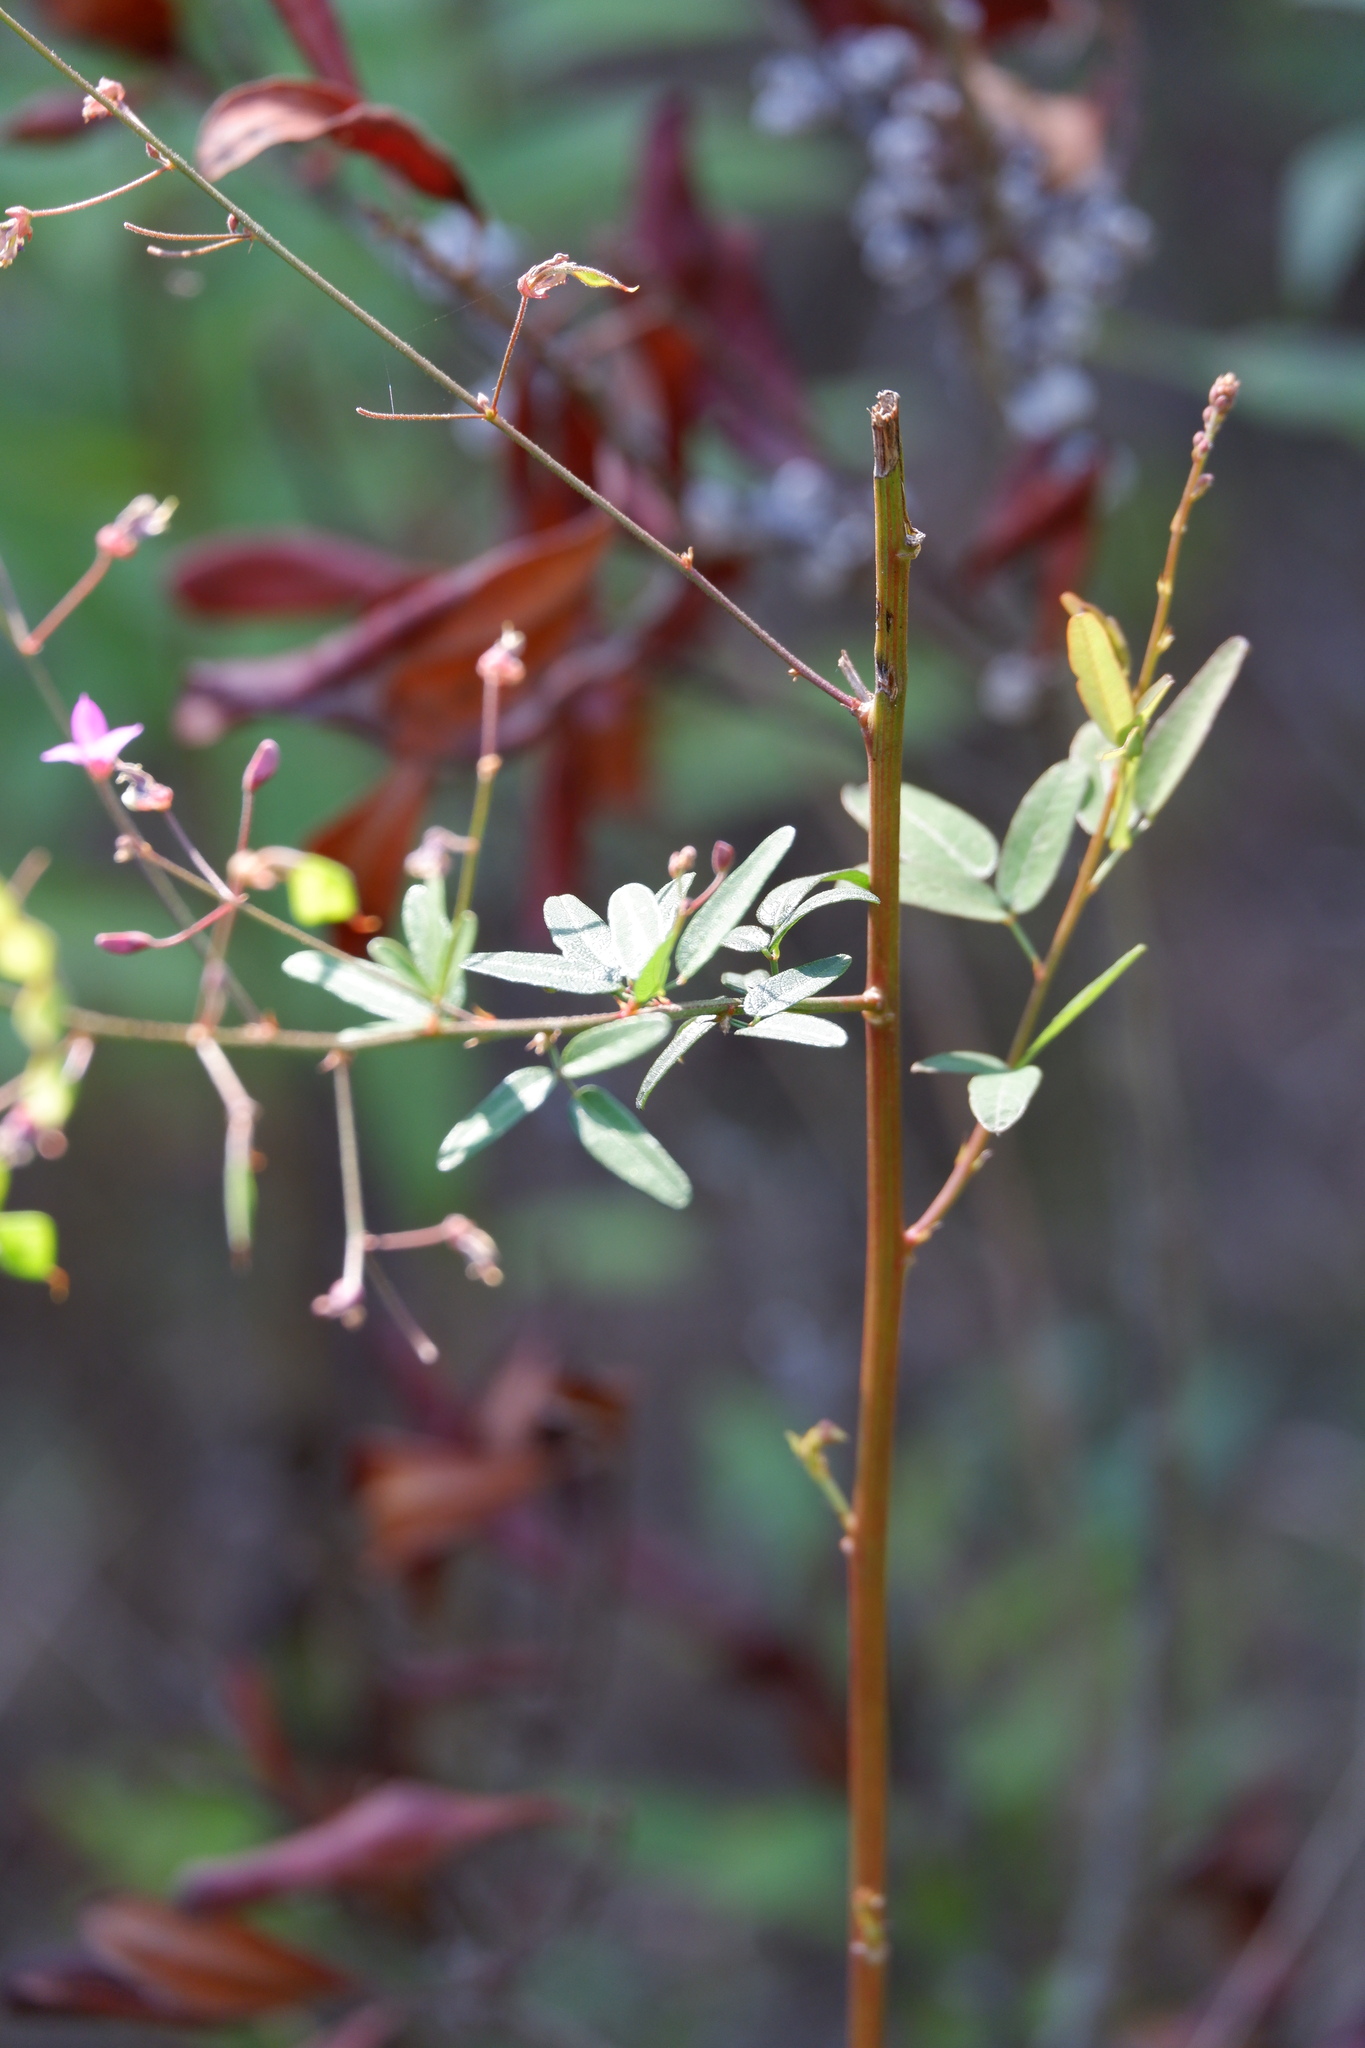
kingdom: Plantae
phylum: Tracheophyta
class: Magnoliopsida
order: Fabales
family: Fabaceae
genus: Desmodium
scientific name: Desmodium paniculatum
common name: Panicled tick-clover
